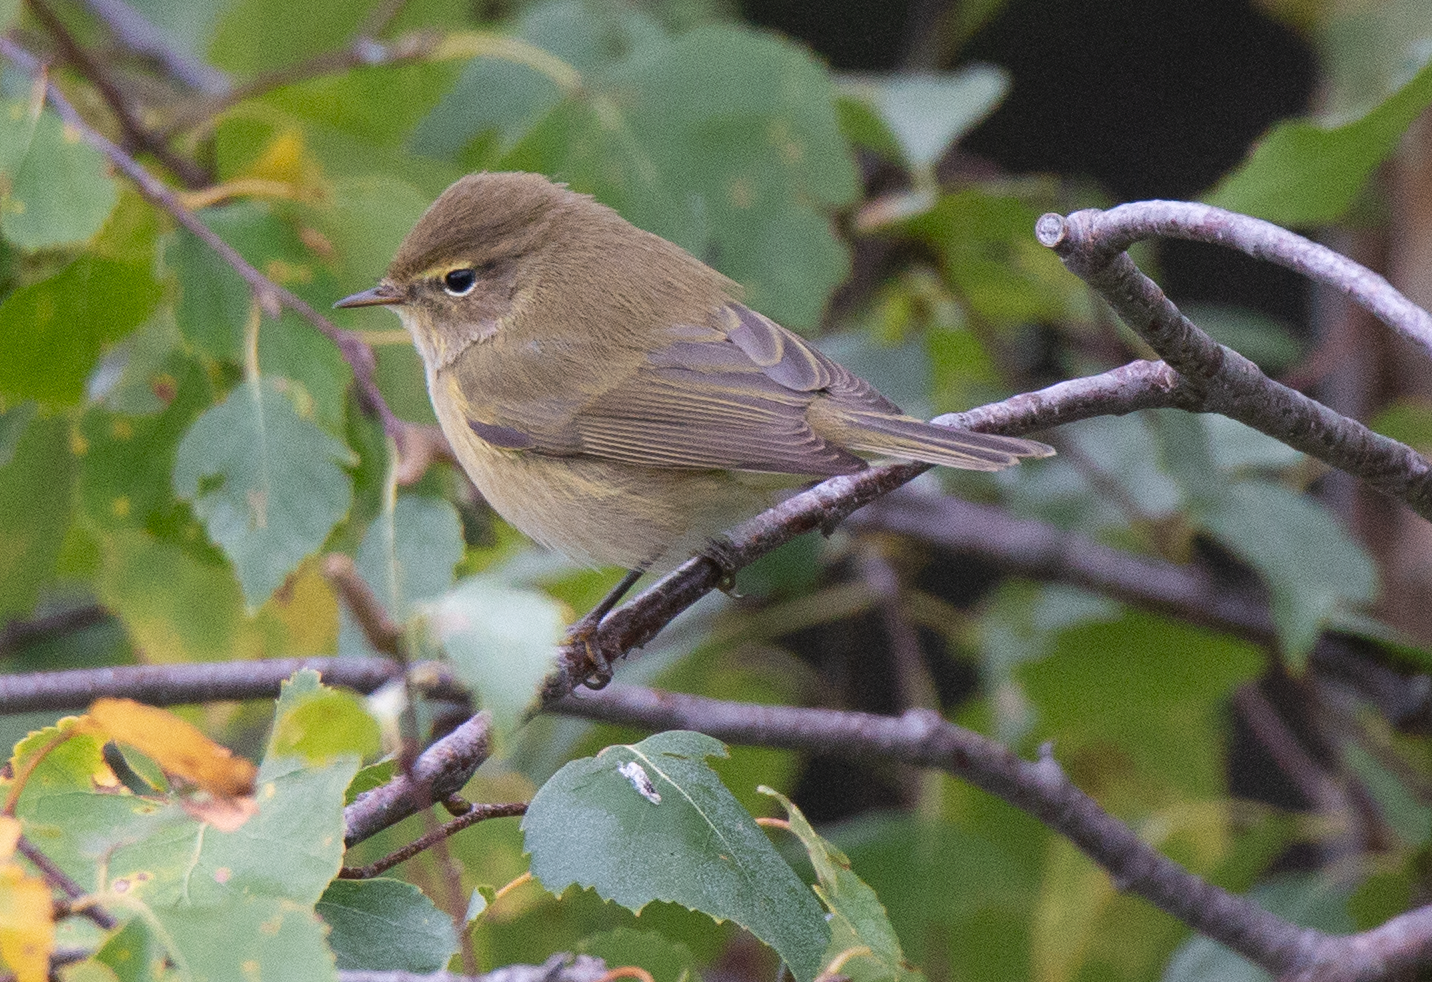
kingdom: Animalia
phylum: Chordata
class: Aves
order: Passeriformes
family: Phylloscopidae
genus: Phylloscopus
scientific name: Phylloscopus collybita
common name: Common chiffchaff
